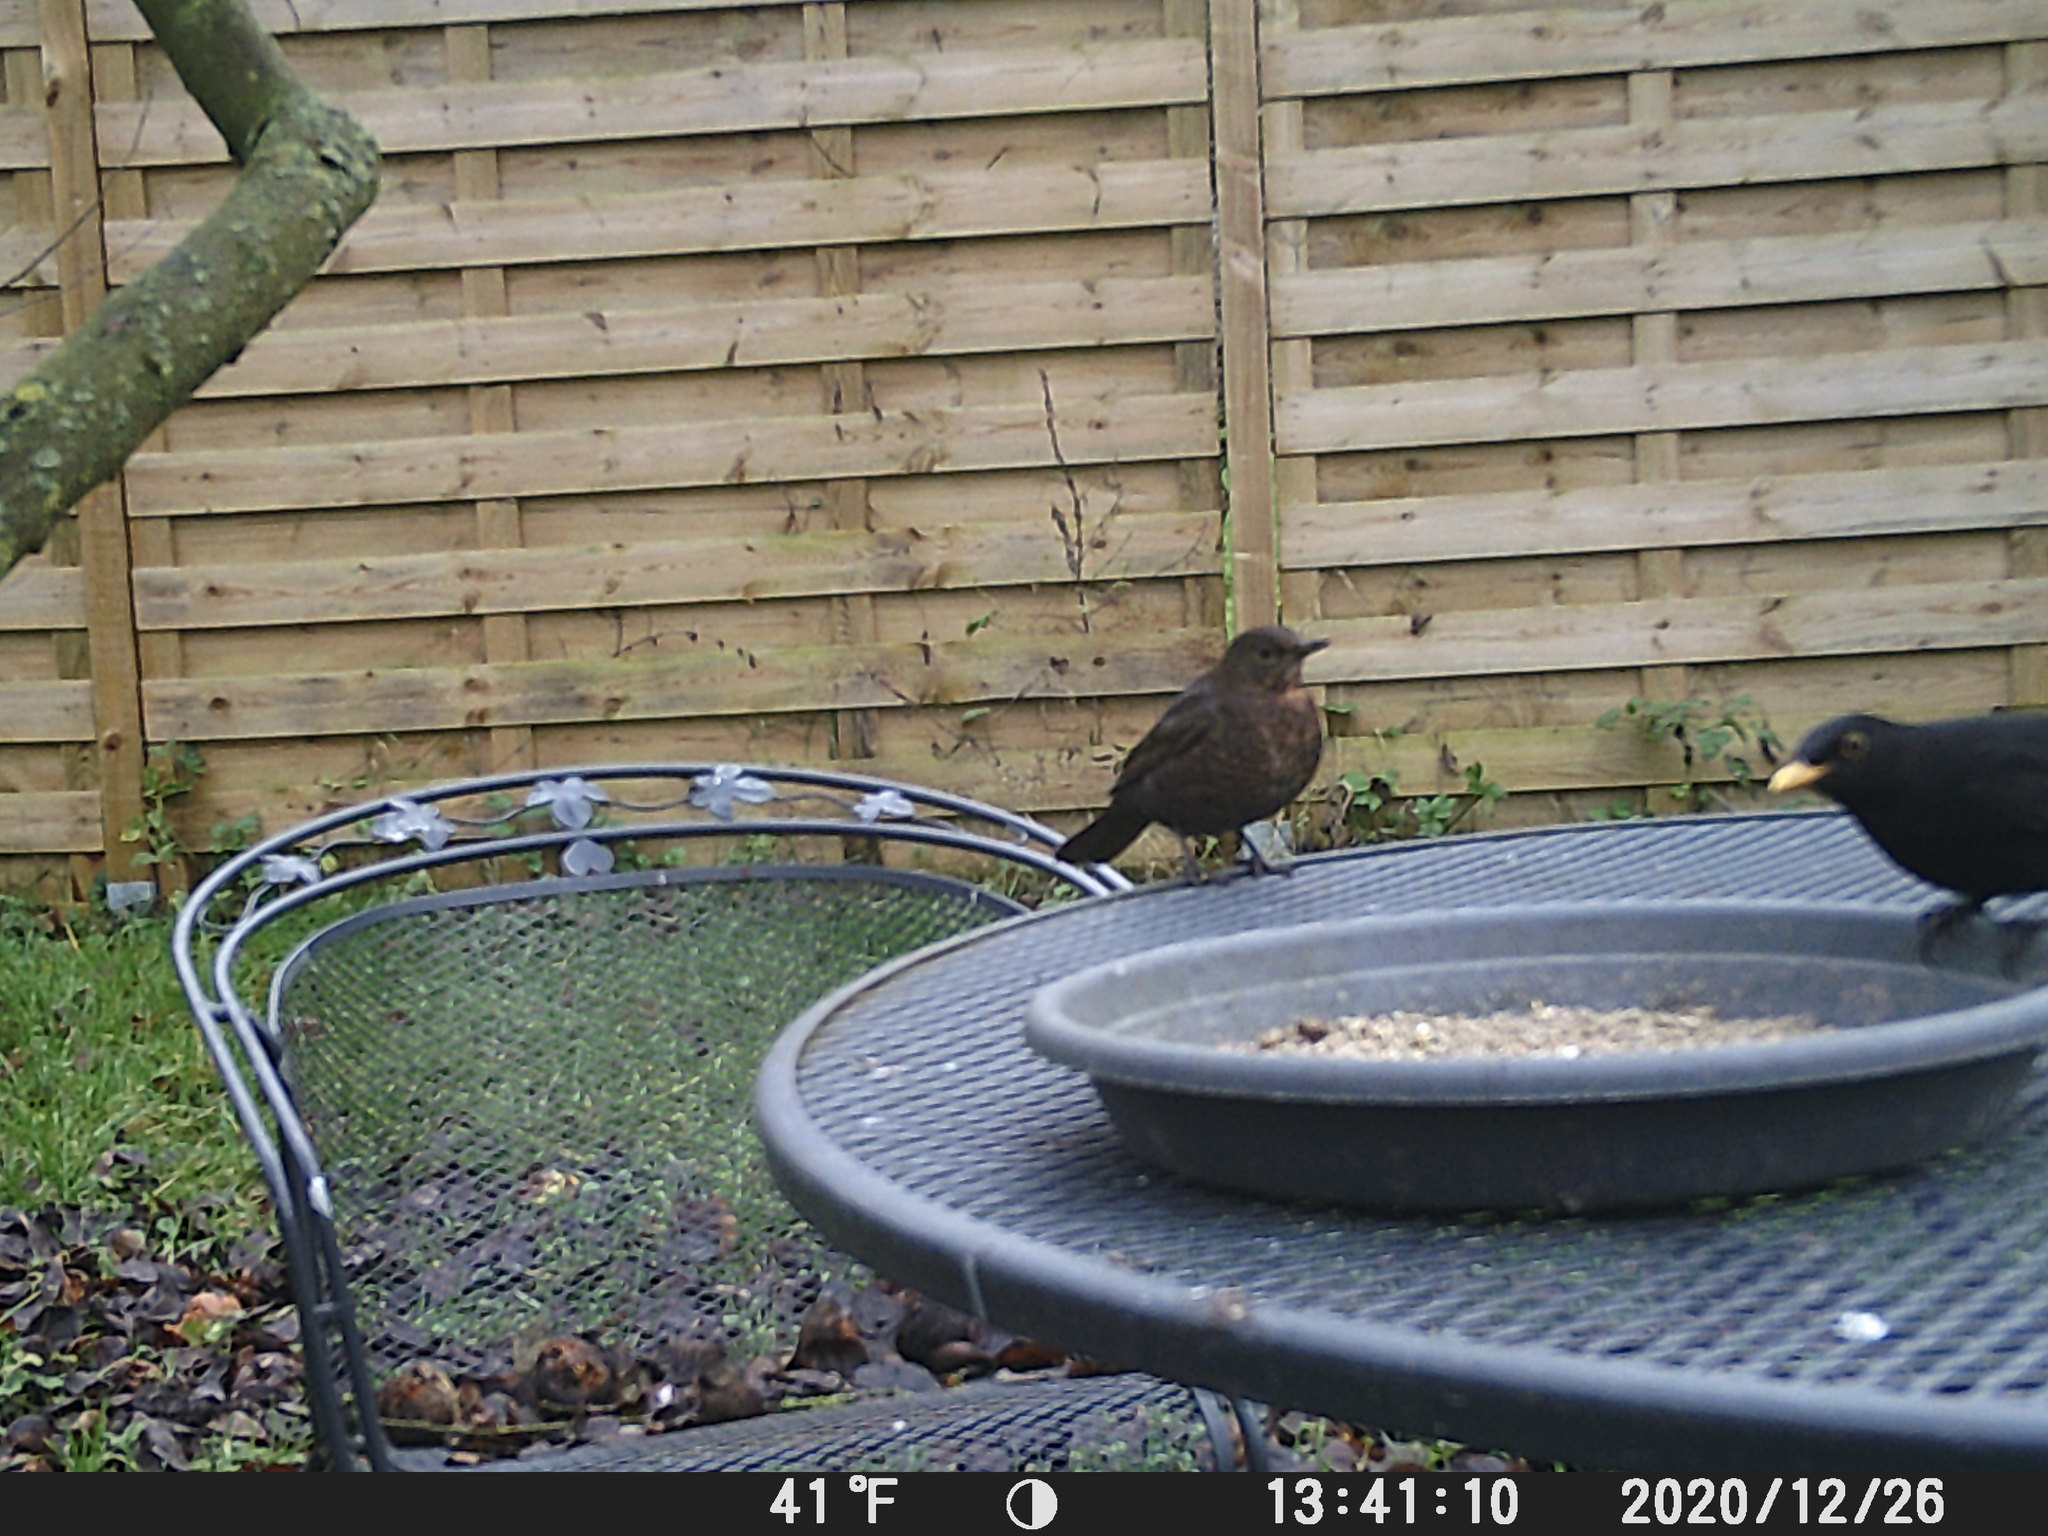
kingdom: Animalia
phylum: Chordata
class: Aves
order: Passeriformes
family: Turdidae
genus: Turdus
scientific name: Turdus merula
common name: Common blackbird
